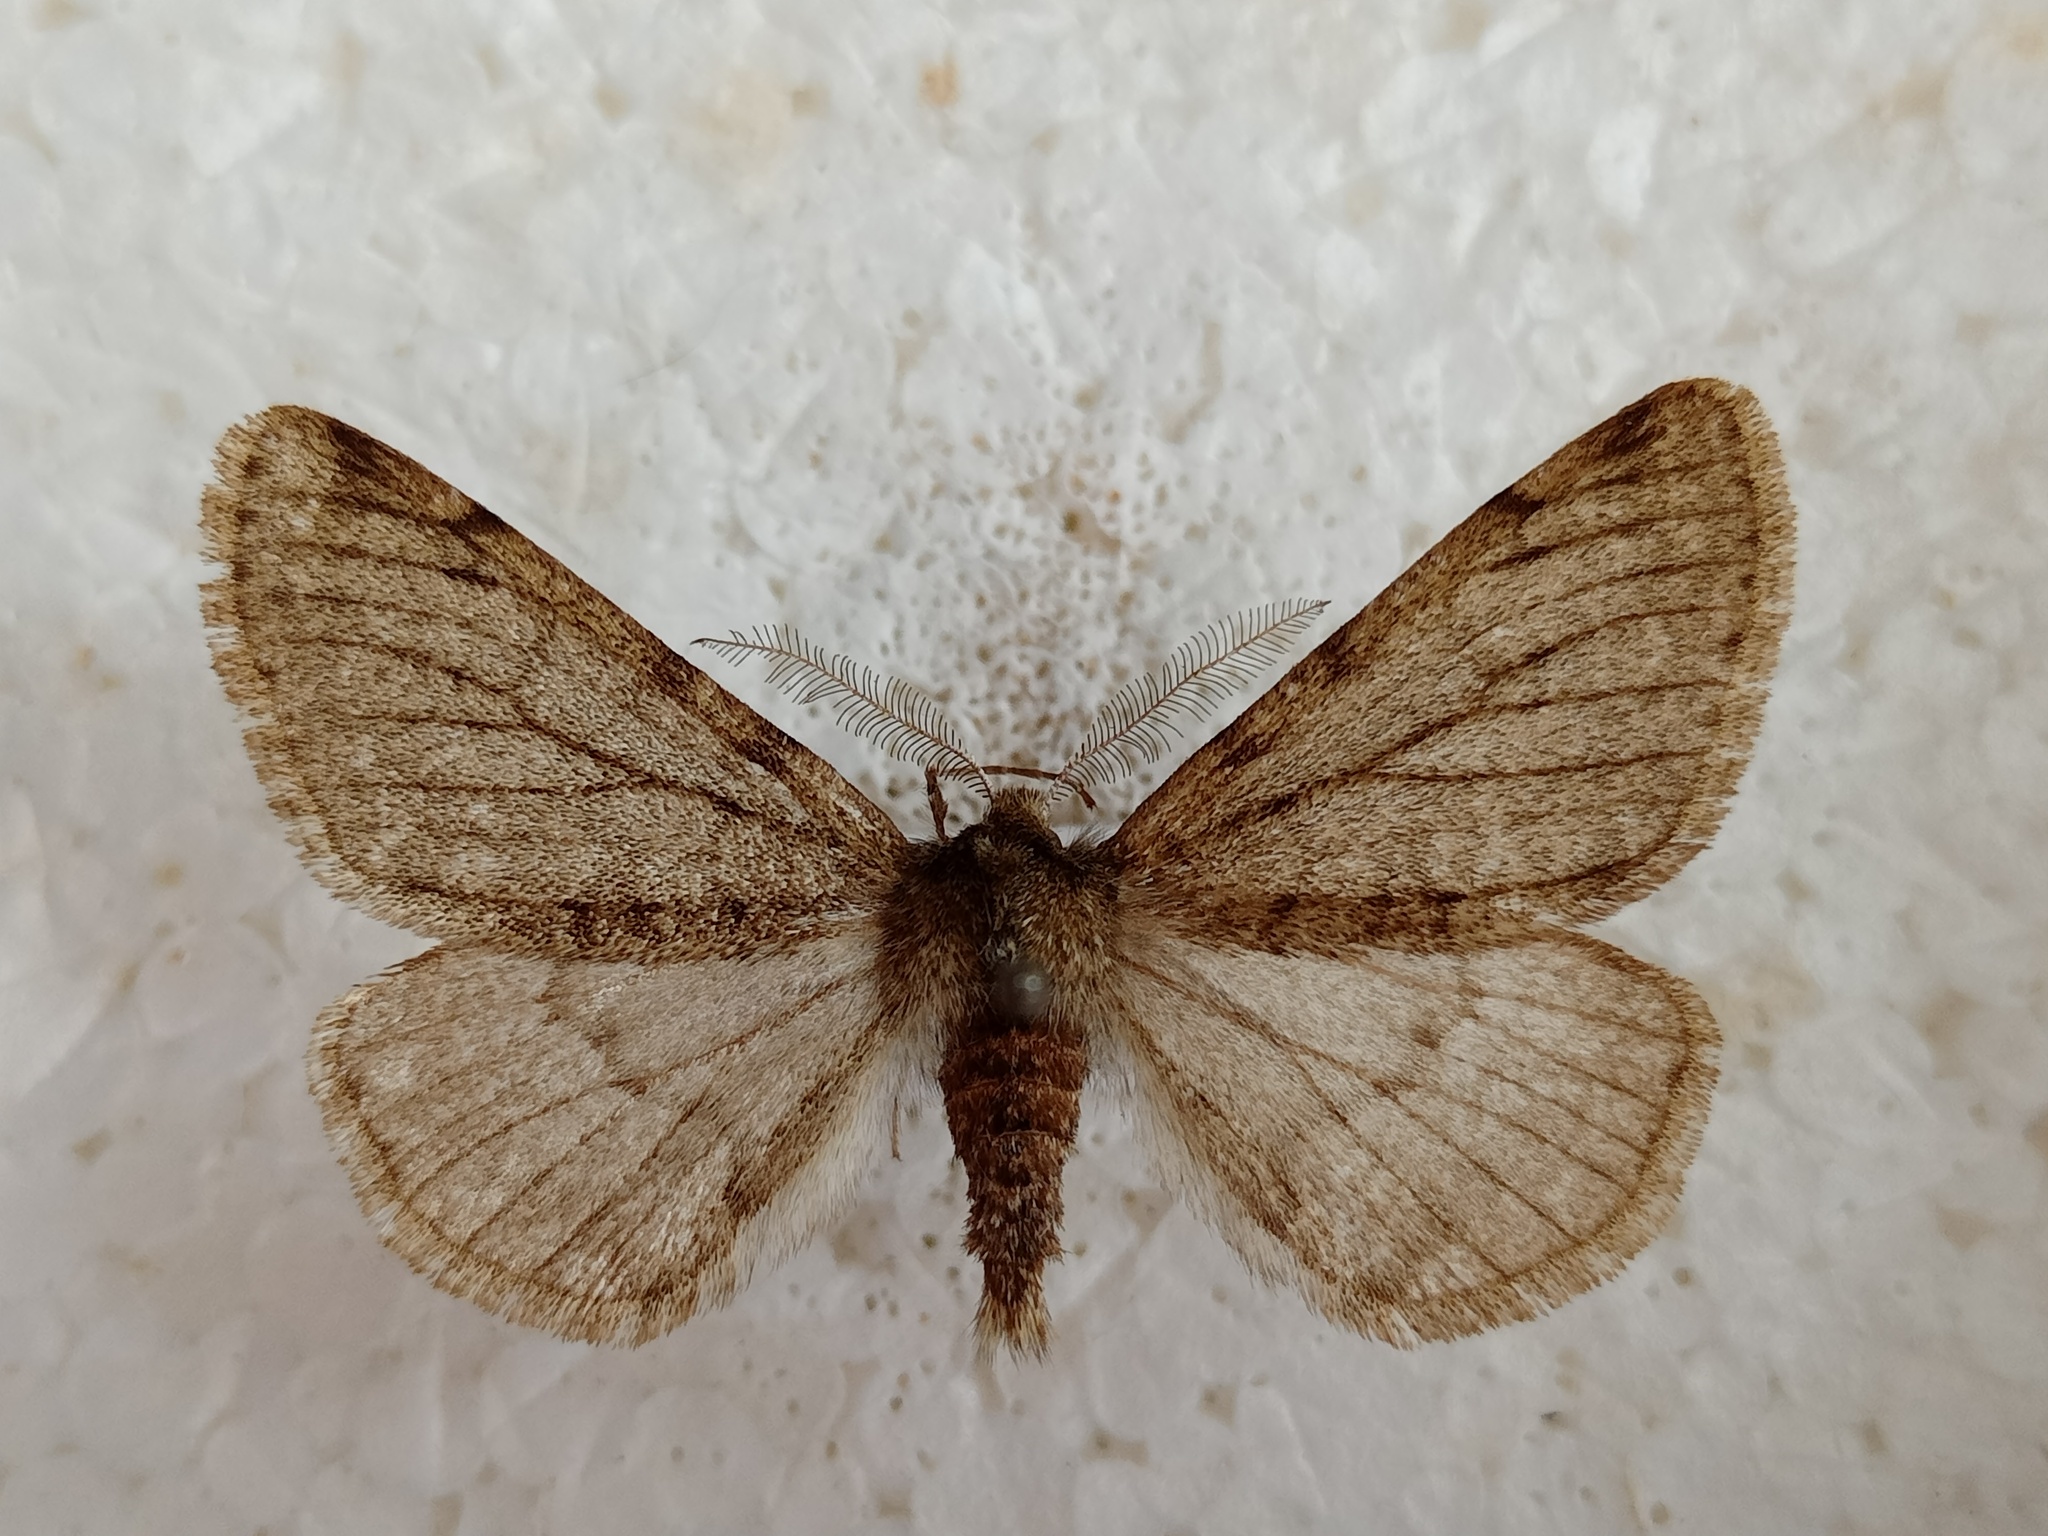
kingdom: Animalia
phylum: Arthropoda
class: Insecta
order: Lepidoptera
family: Geometridae
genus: Phigalia
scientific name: Phigalia pilosaria
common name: Pale brindled beauty
